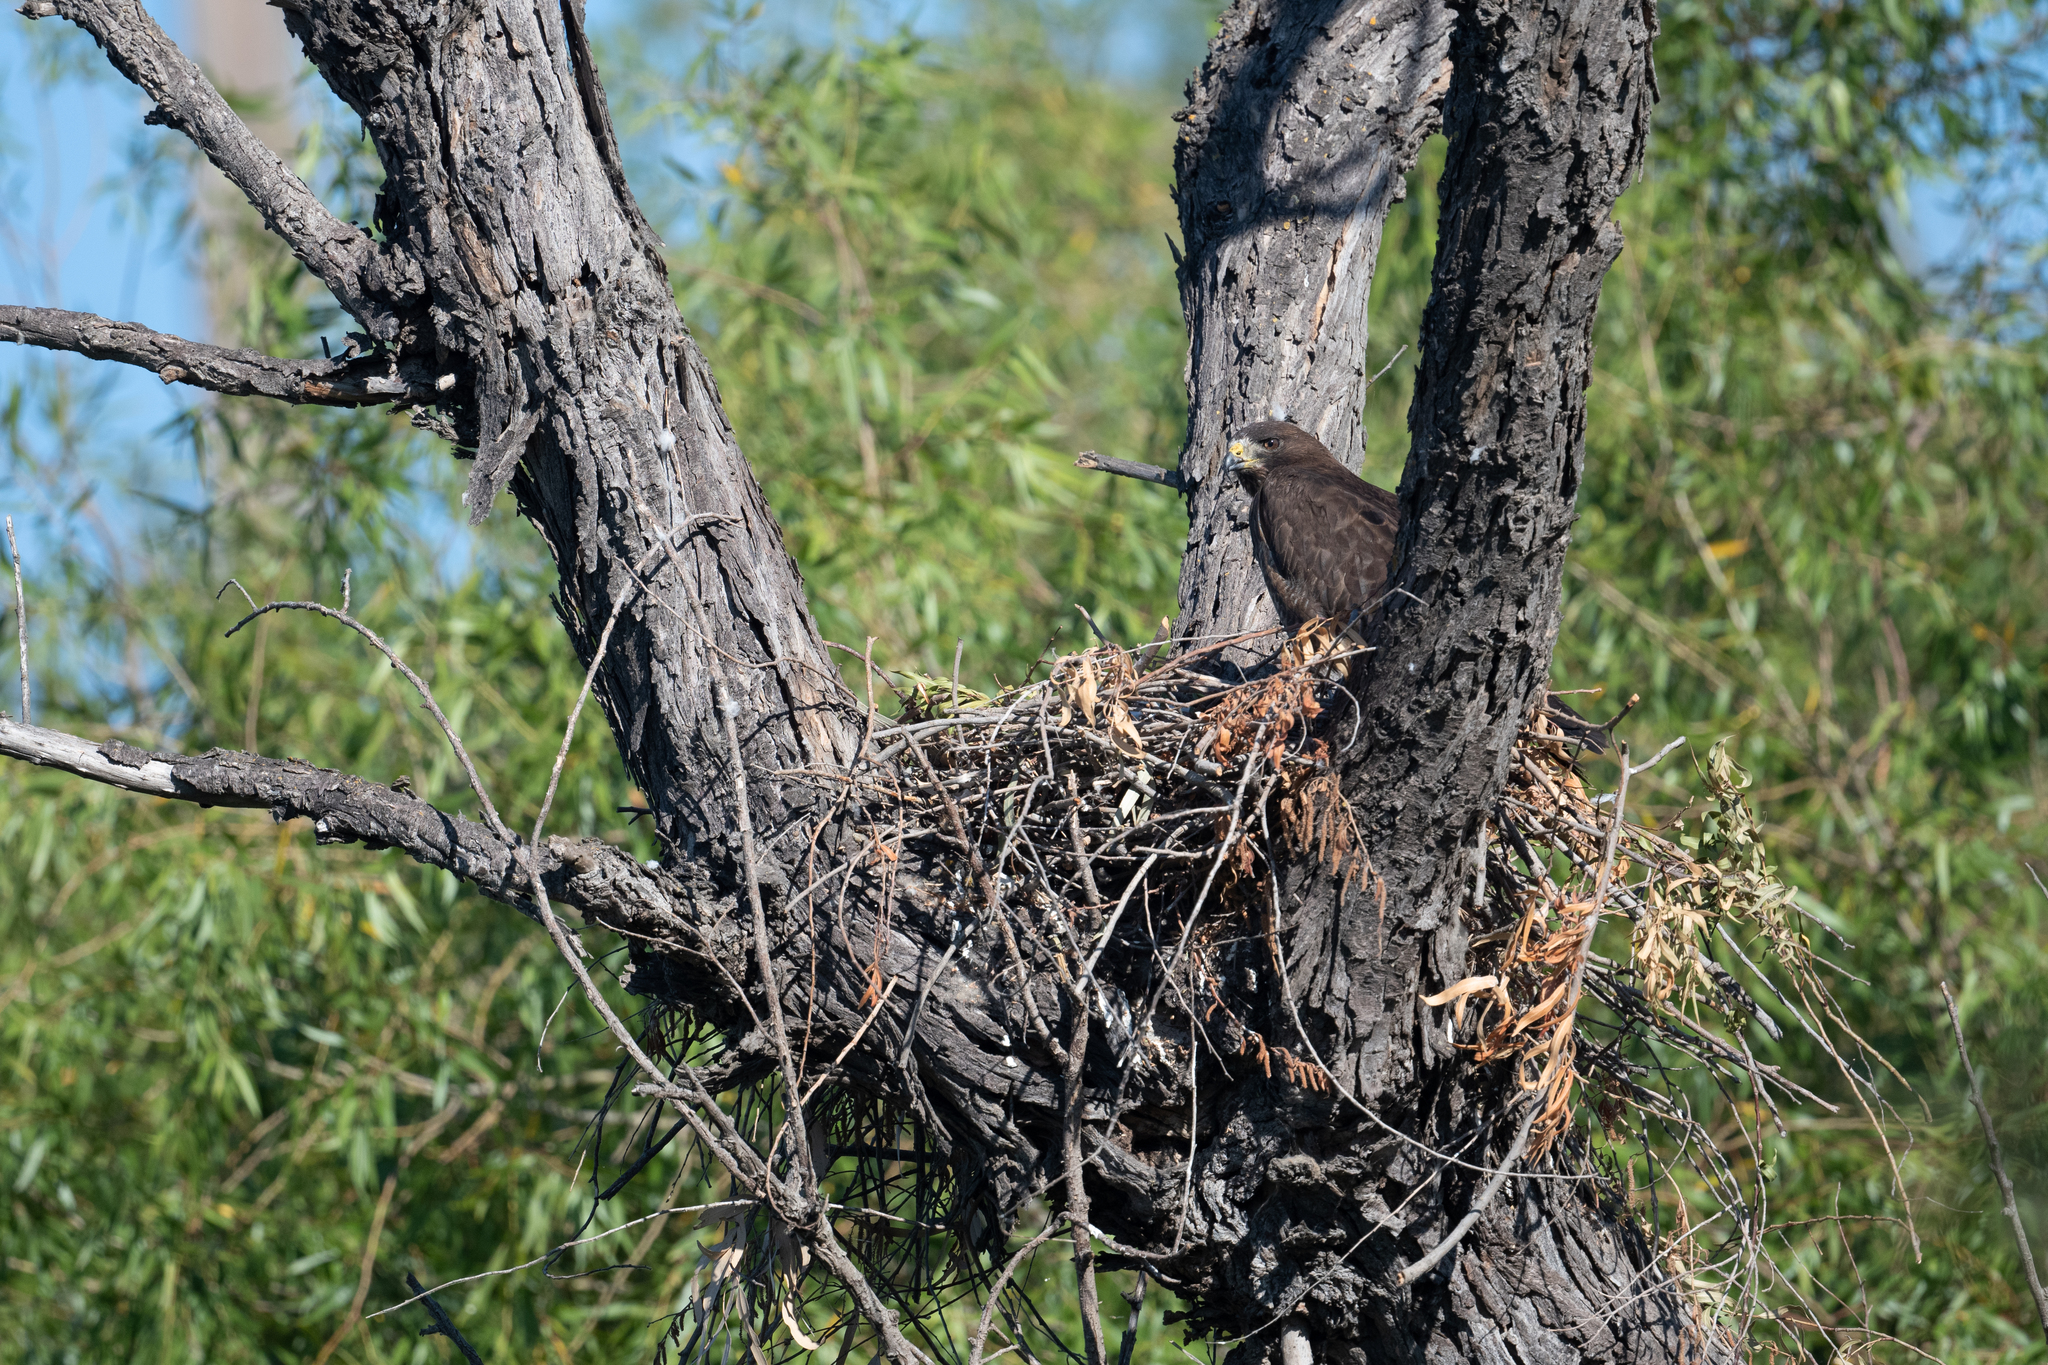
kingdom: Animalia
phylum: Chordata
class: Aves
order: Accipitriformes
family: Accipitridae
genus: Buteo
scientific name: Buteo swainsoni
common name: Swainson's hawk
